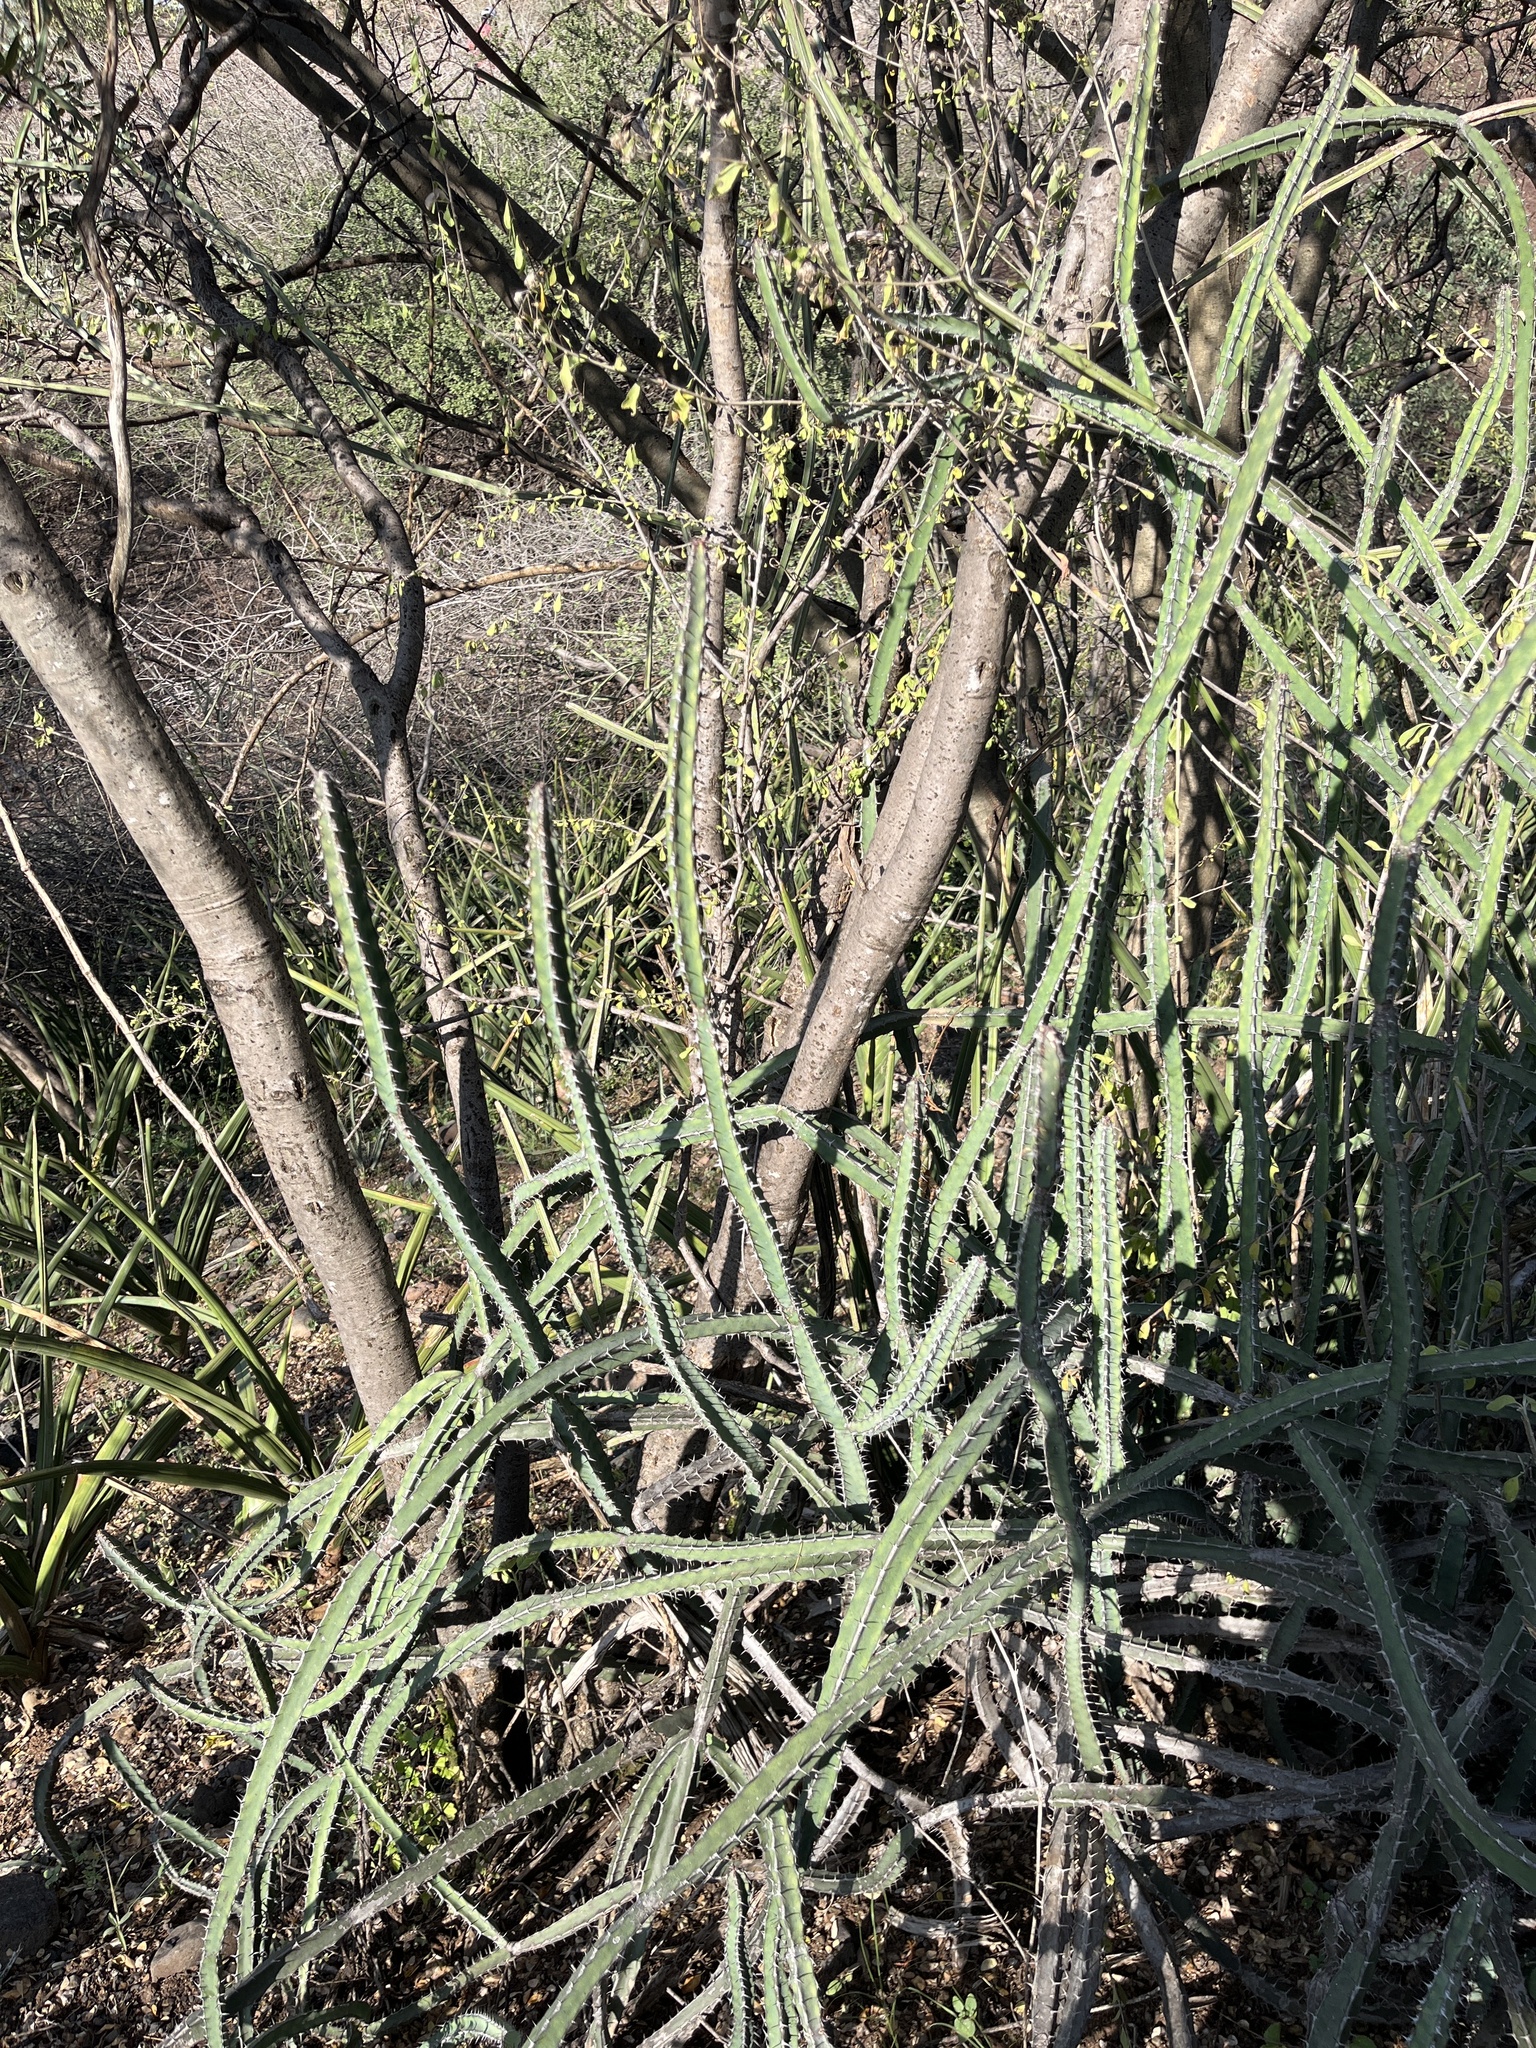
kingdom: Plantae
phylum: Tracheophyta
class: Magnoliopsida
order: Malpighiales
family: Euphorbiaceae
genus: Euphorbia
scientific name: Euphorbia heterospina
